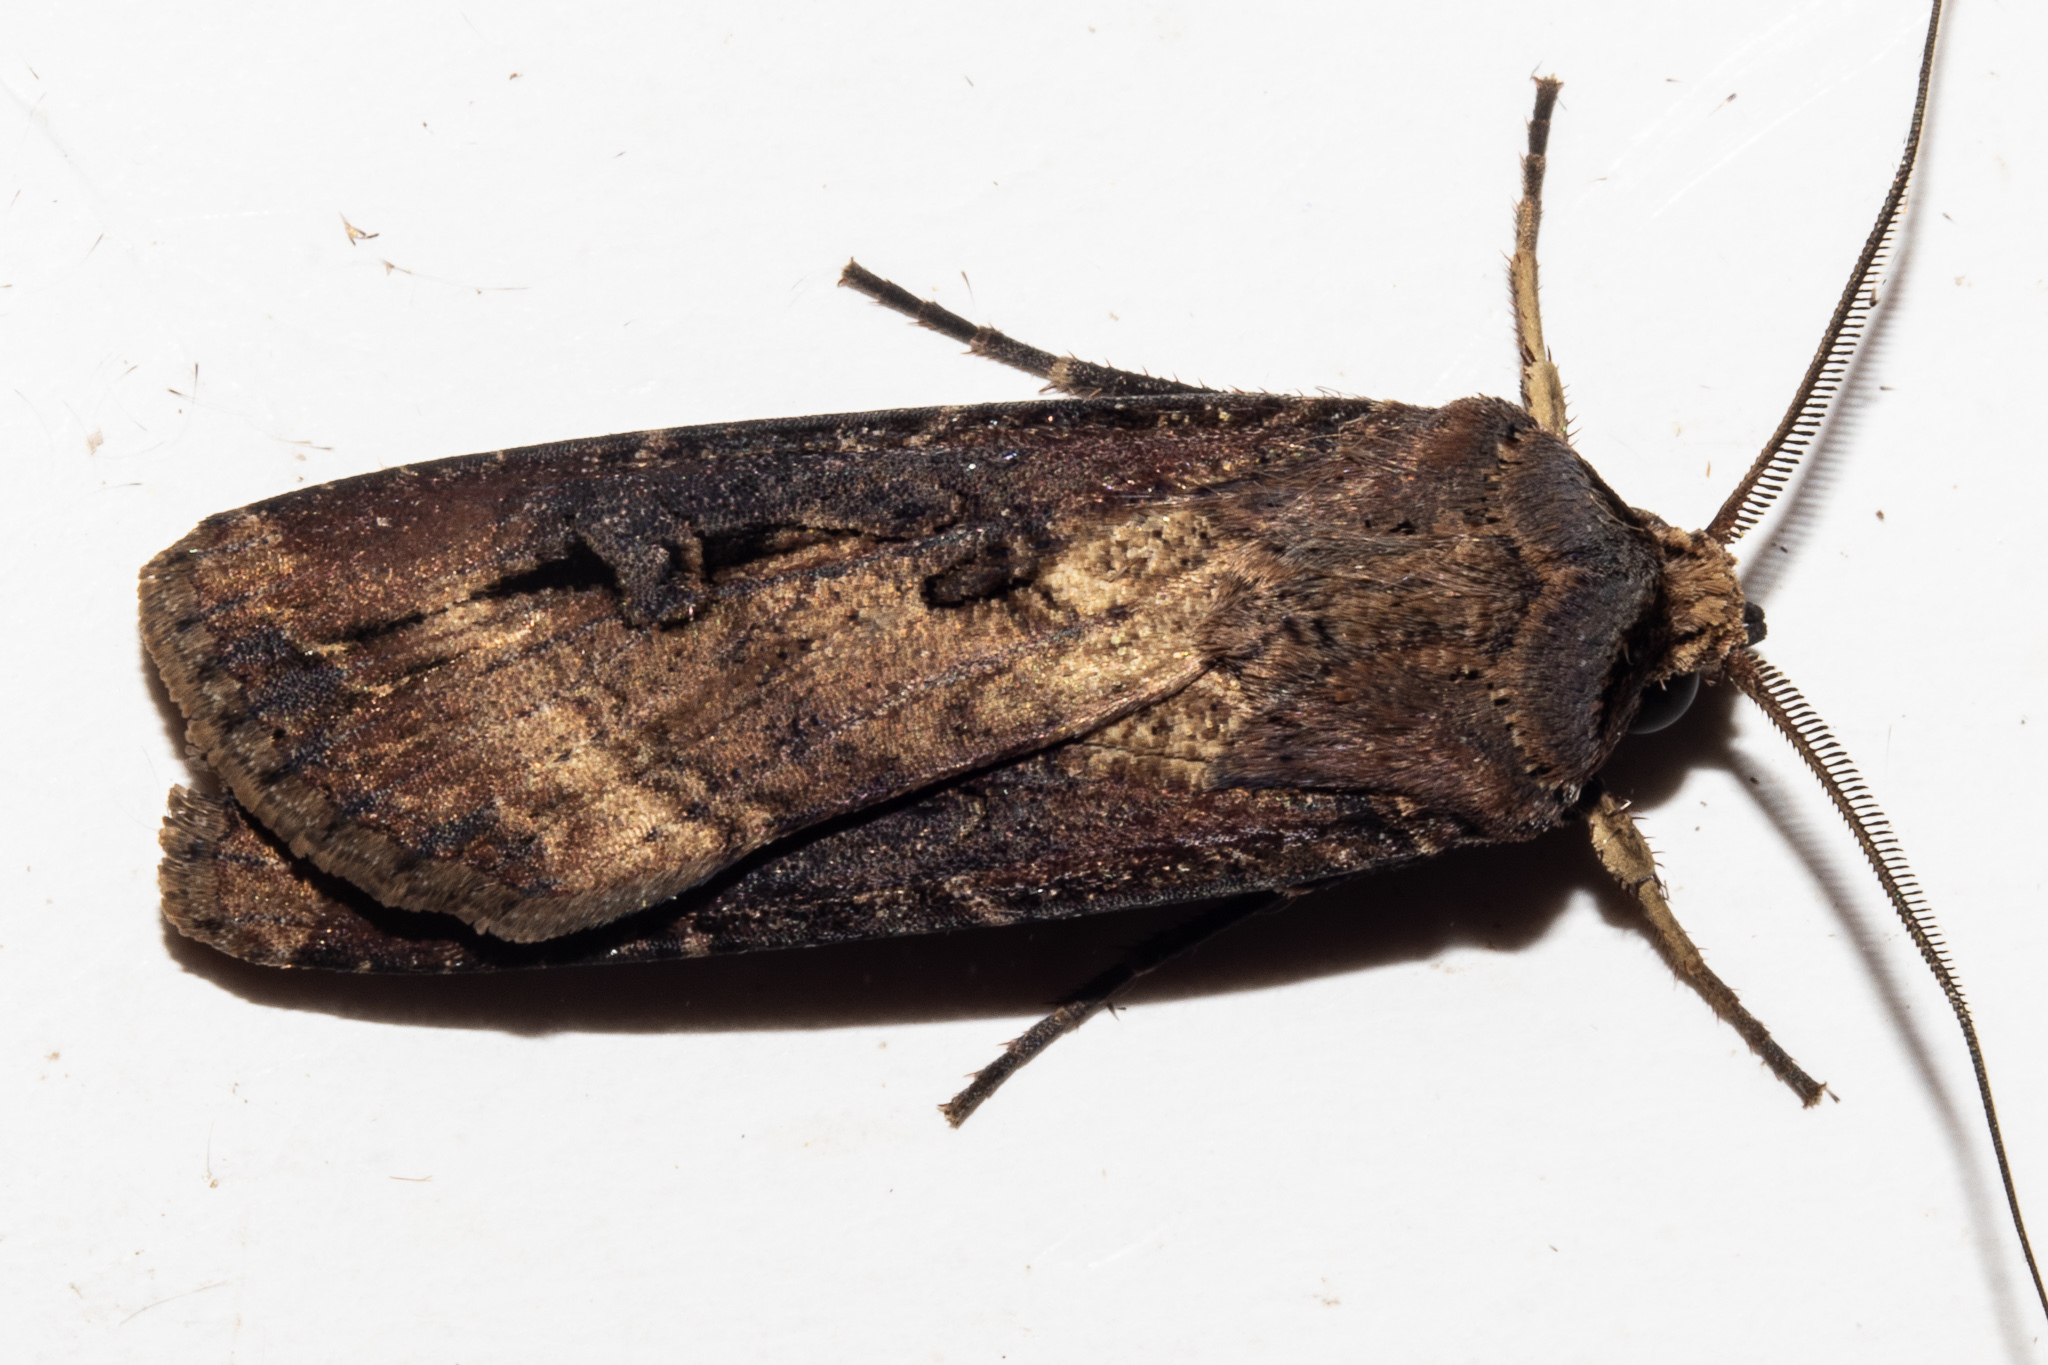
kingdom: Animalia
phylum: Arthropoda
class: Insecta
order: Lepidoptera
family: Noctuidae
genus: Agrotis
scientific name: Agrotis ipsilon
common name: Dark sword-grass
